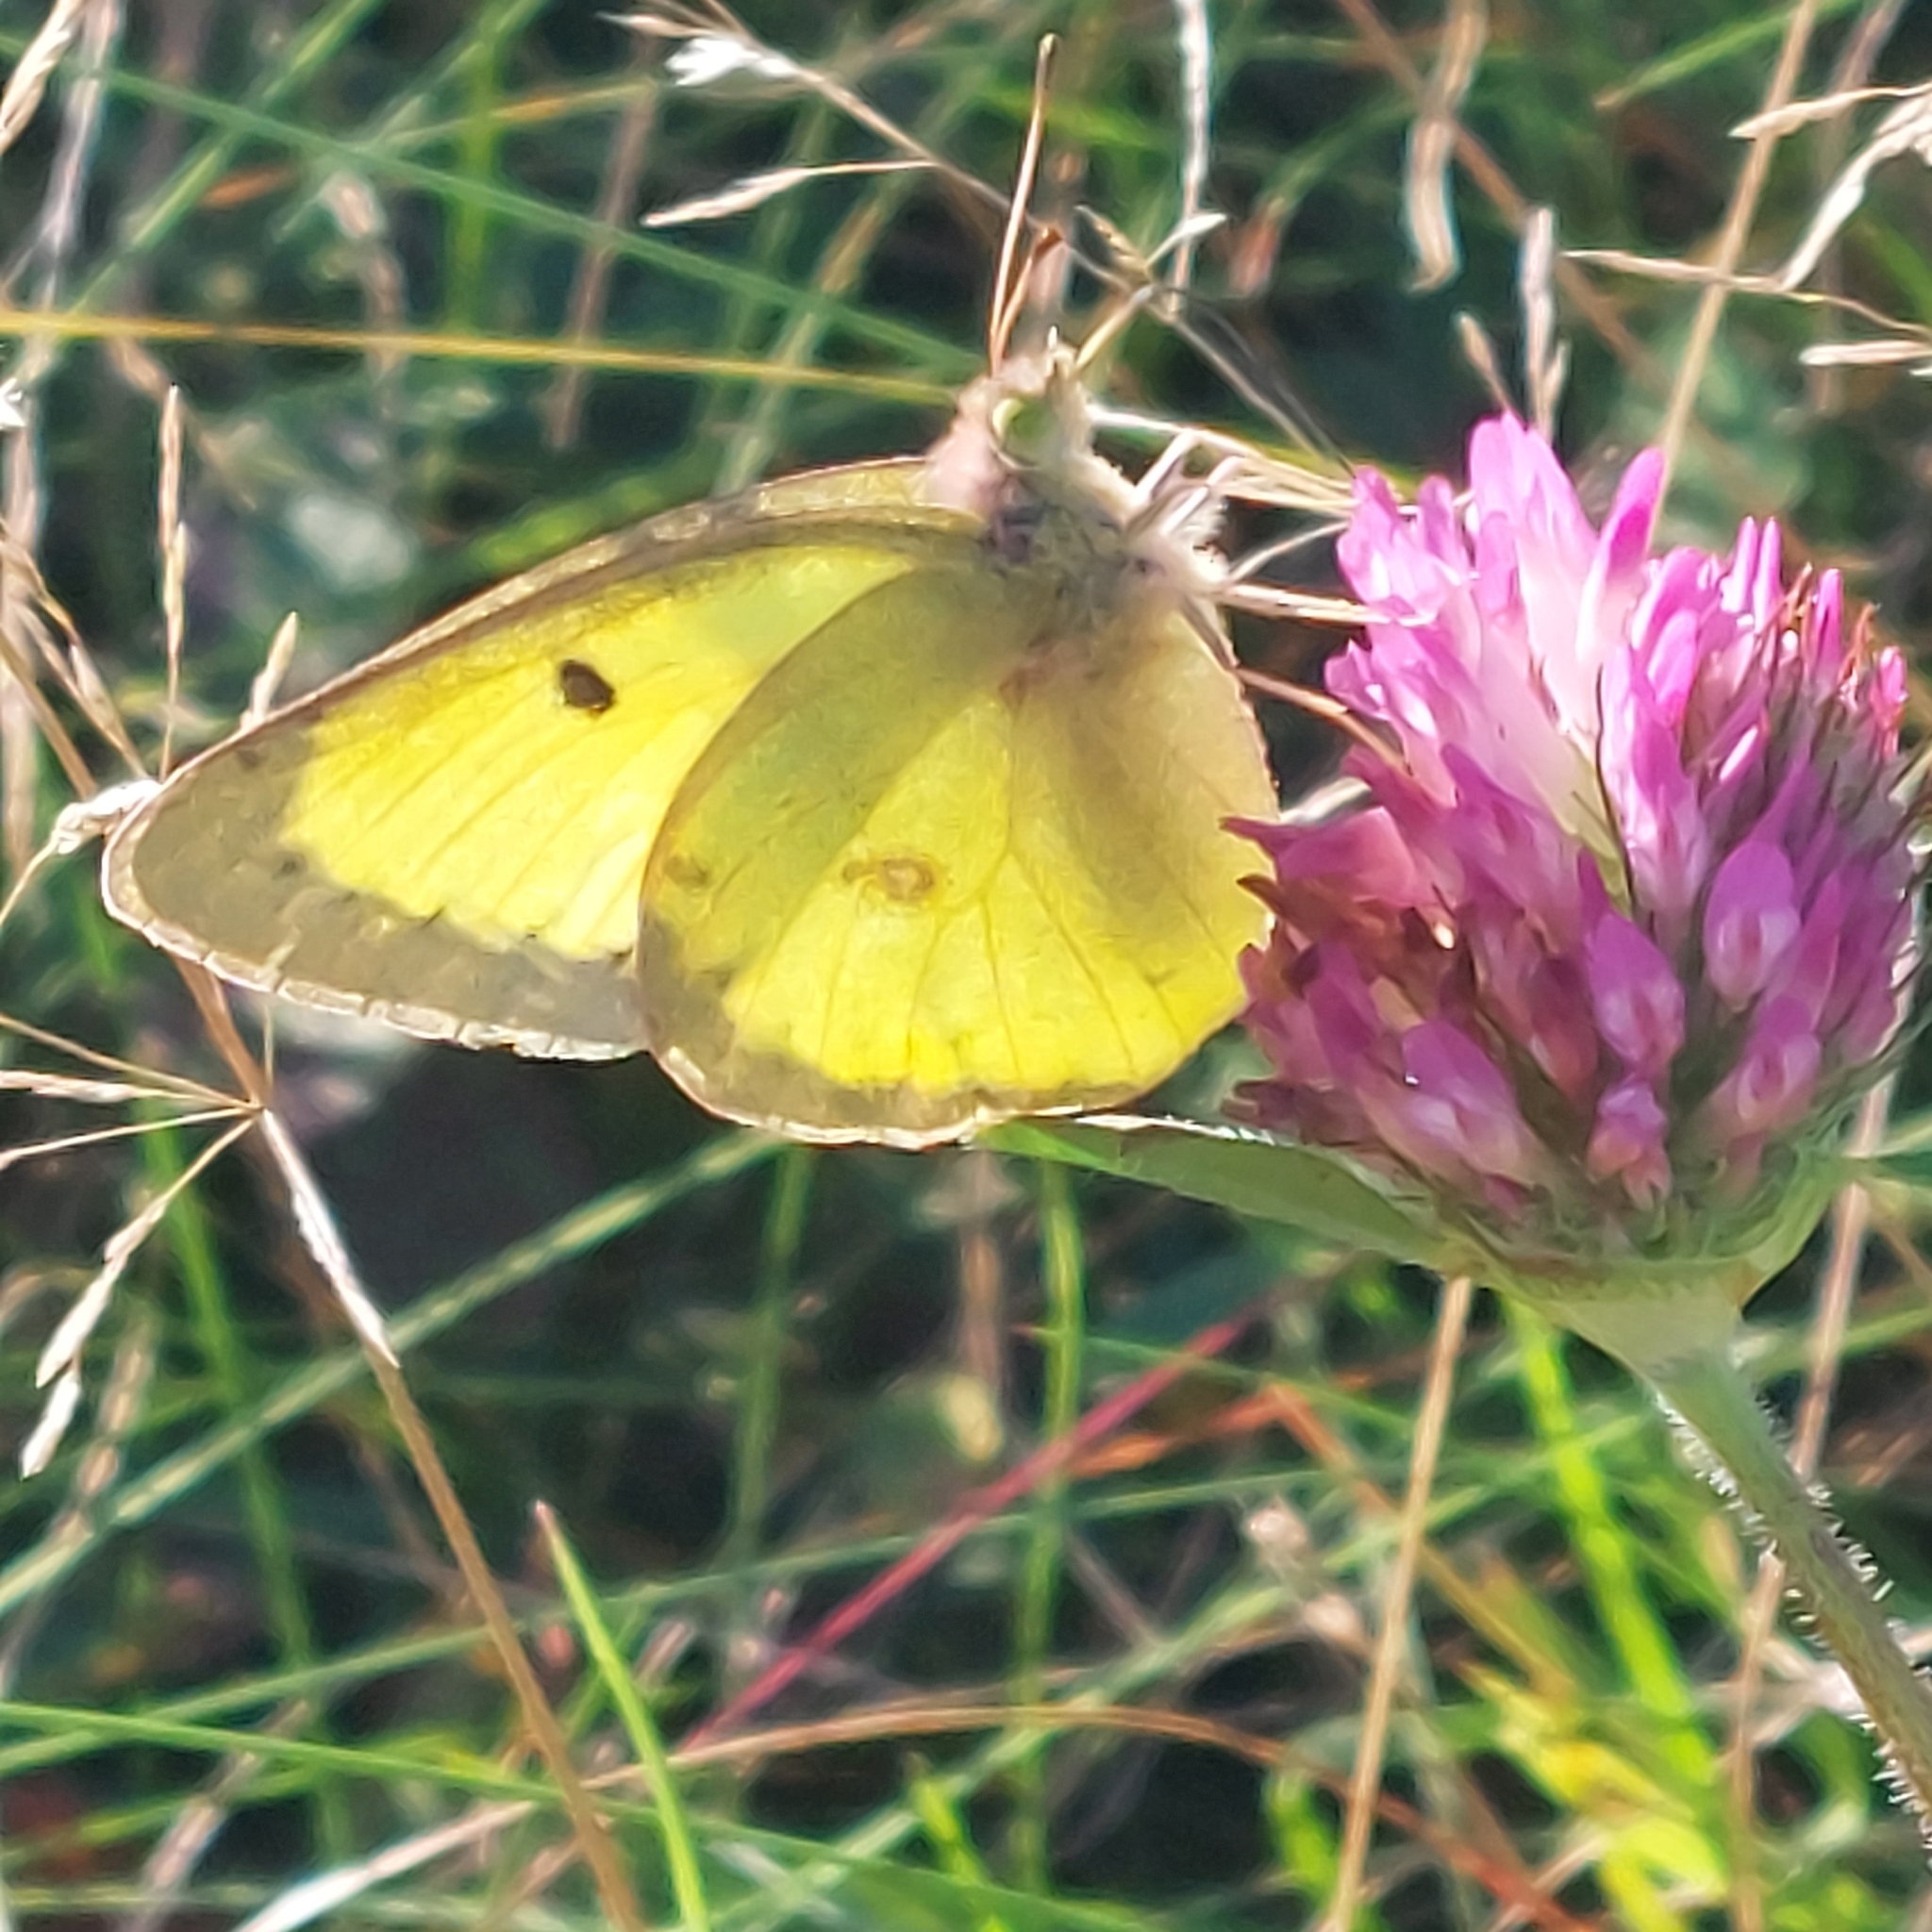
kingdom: Animalia
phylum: Arthropoda
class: Insecta
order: Lepidoptera
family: Pieridae
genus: Colias
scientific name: Colias philodice
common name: Clouded sulphur
